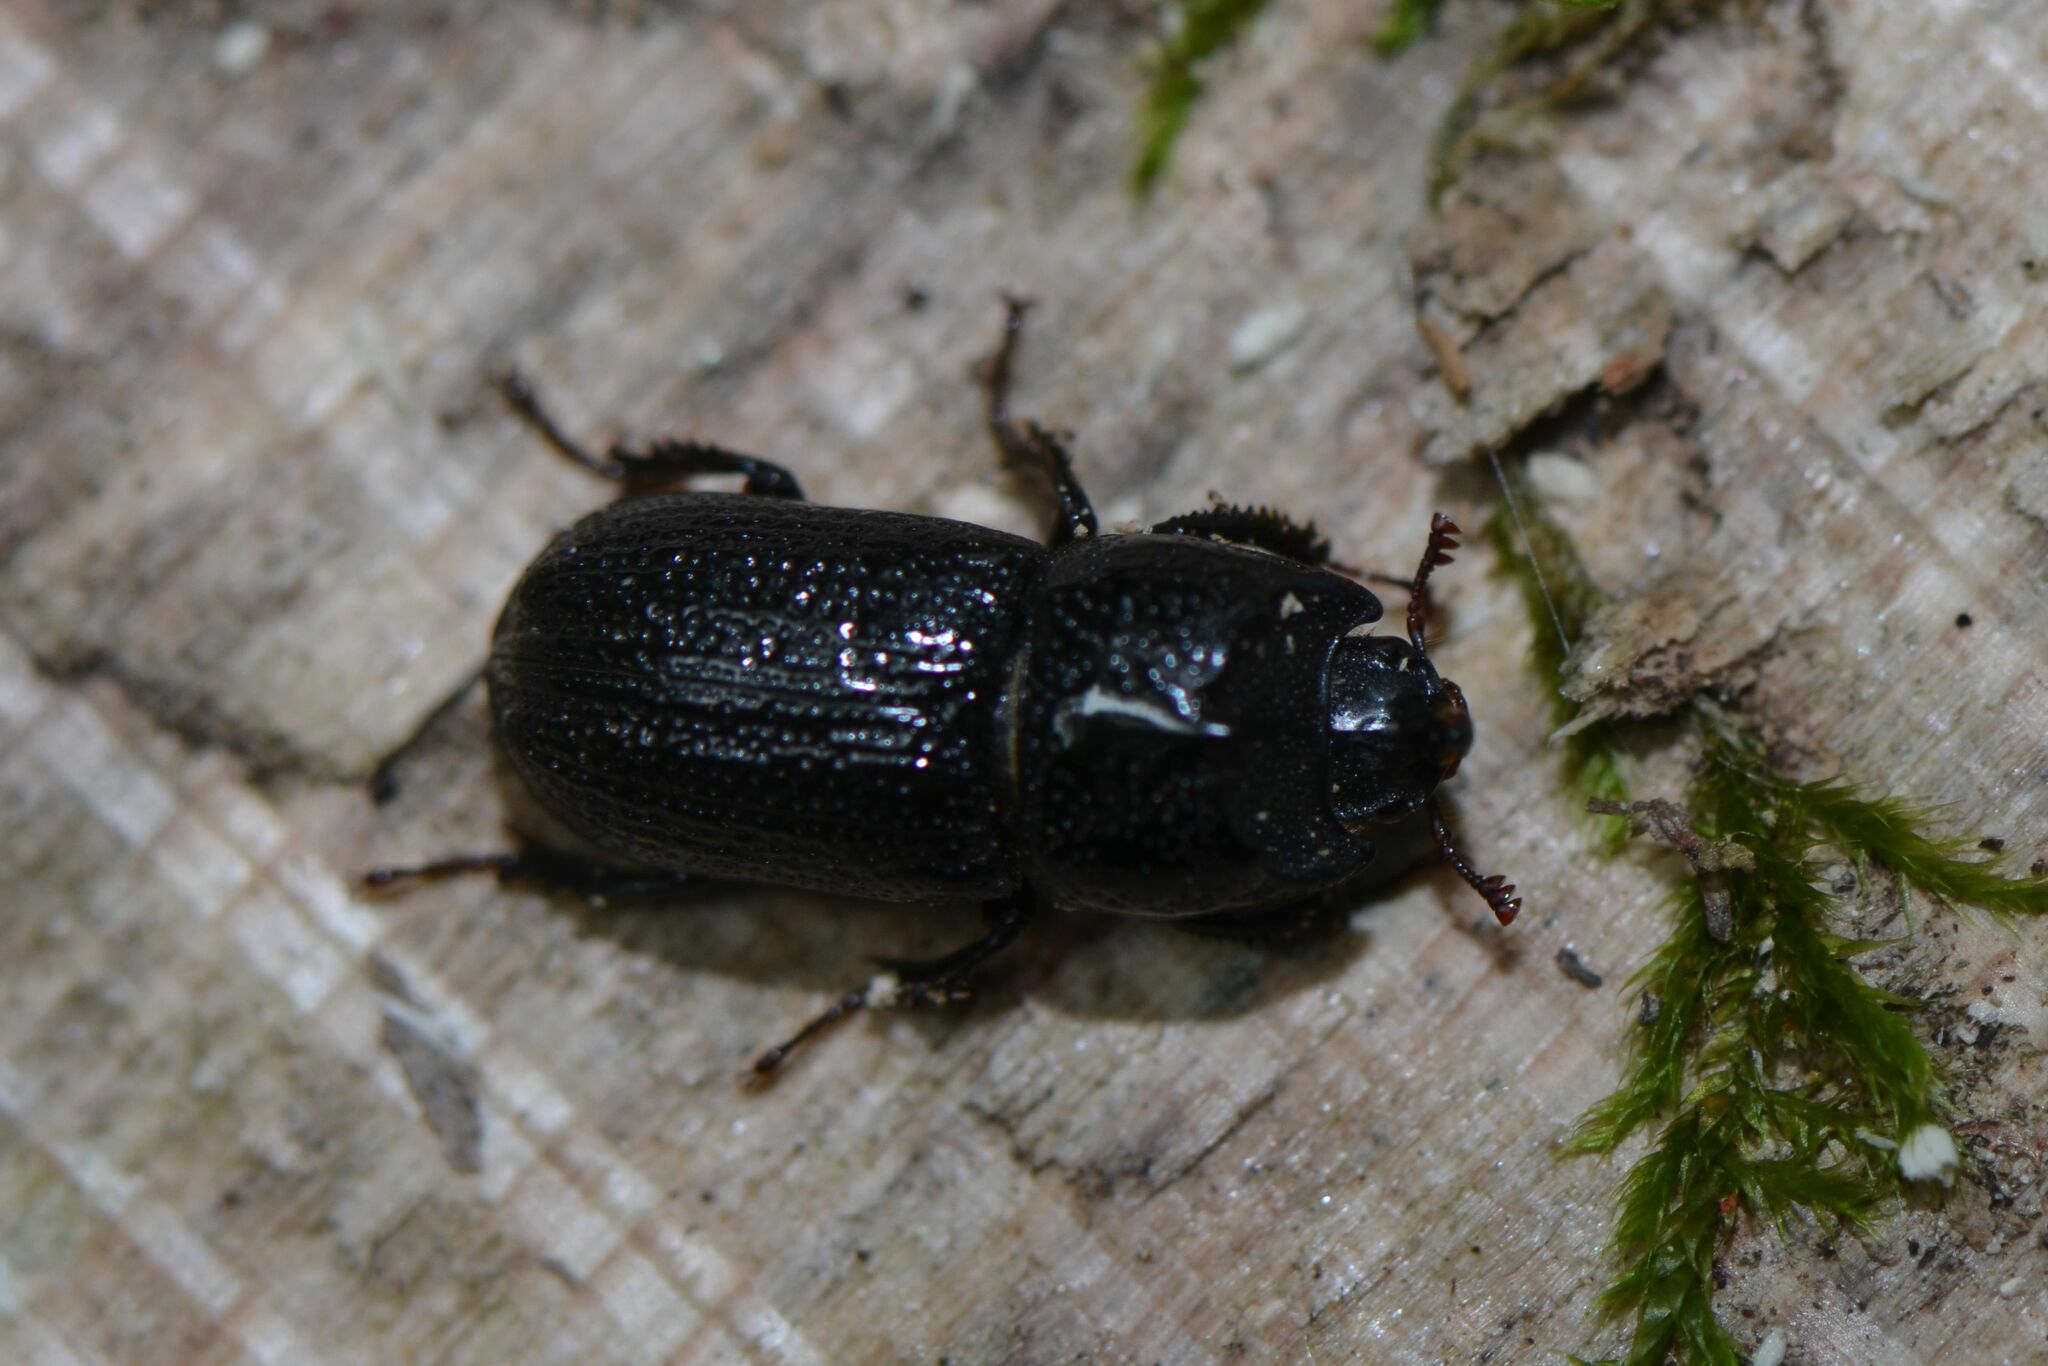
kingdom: Animalia
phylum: Arthropoda
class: Insecta
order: Coleoptera
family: Lucanidae
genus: Sinodendron
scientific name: Sinodendron cylindricum
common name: Rhinoceros beetle
